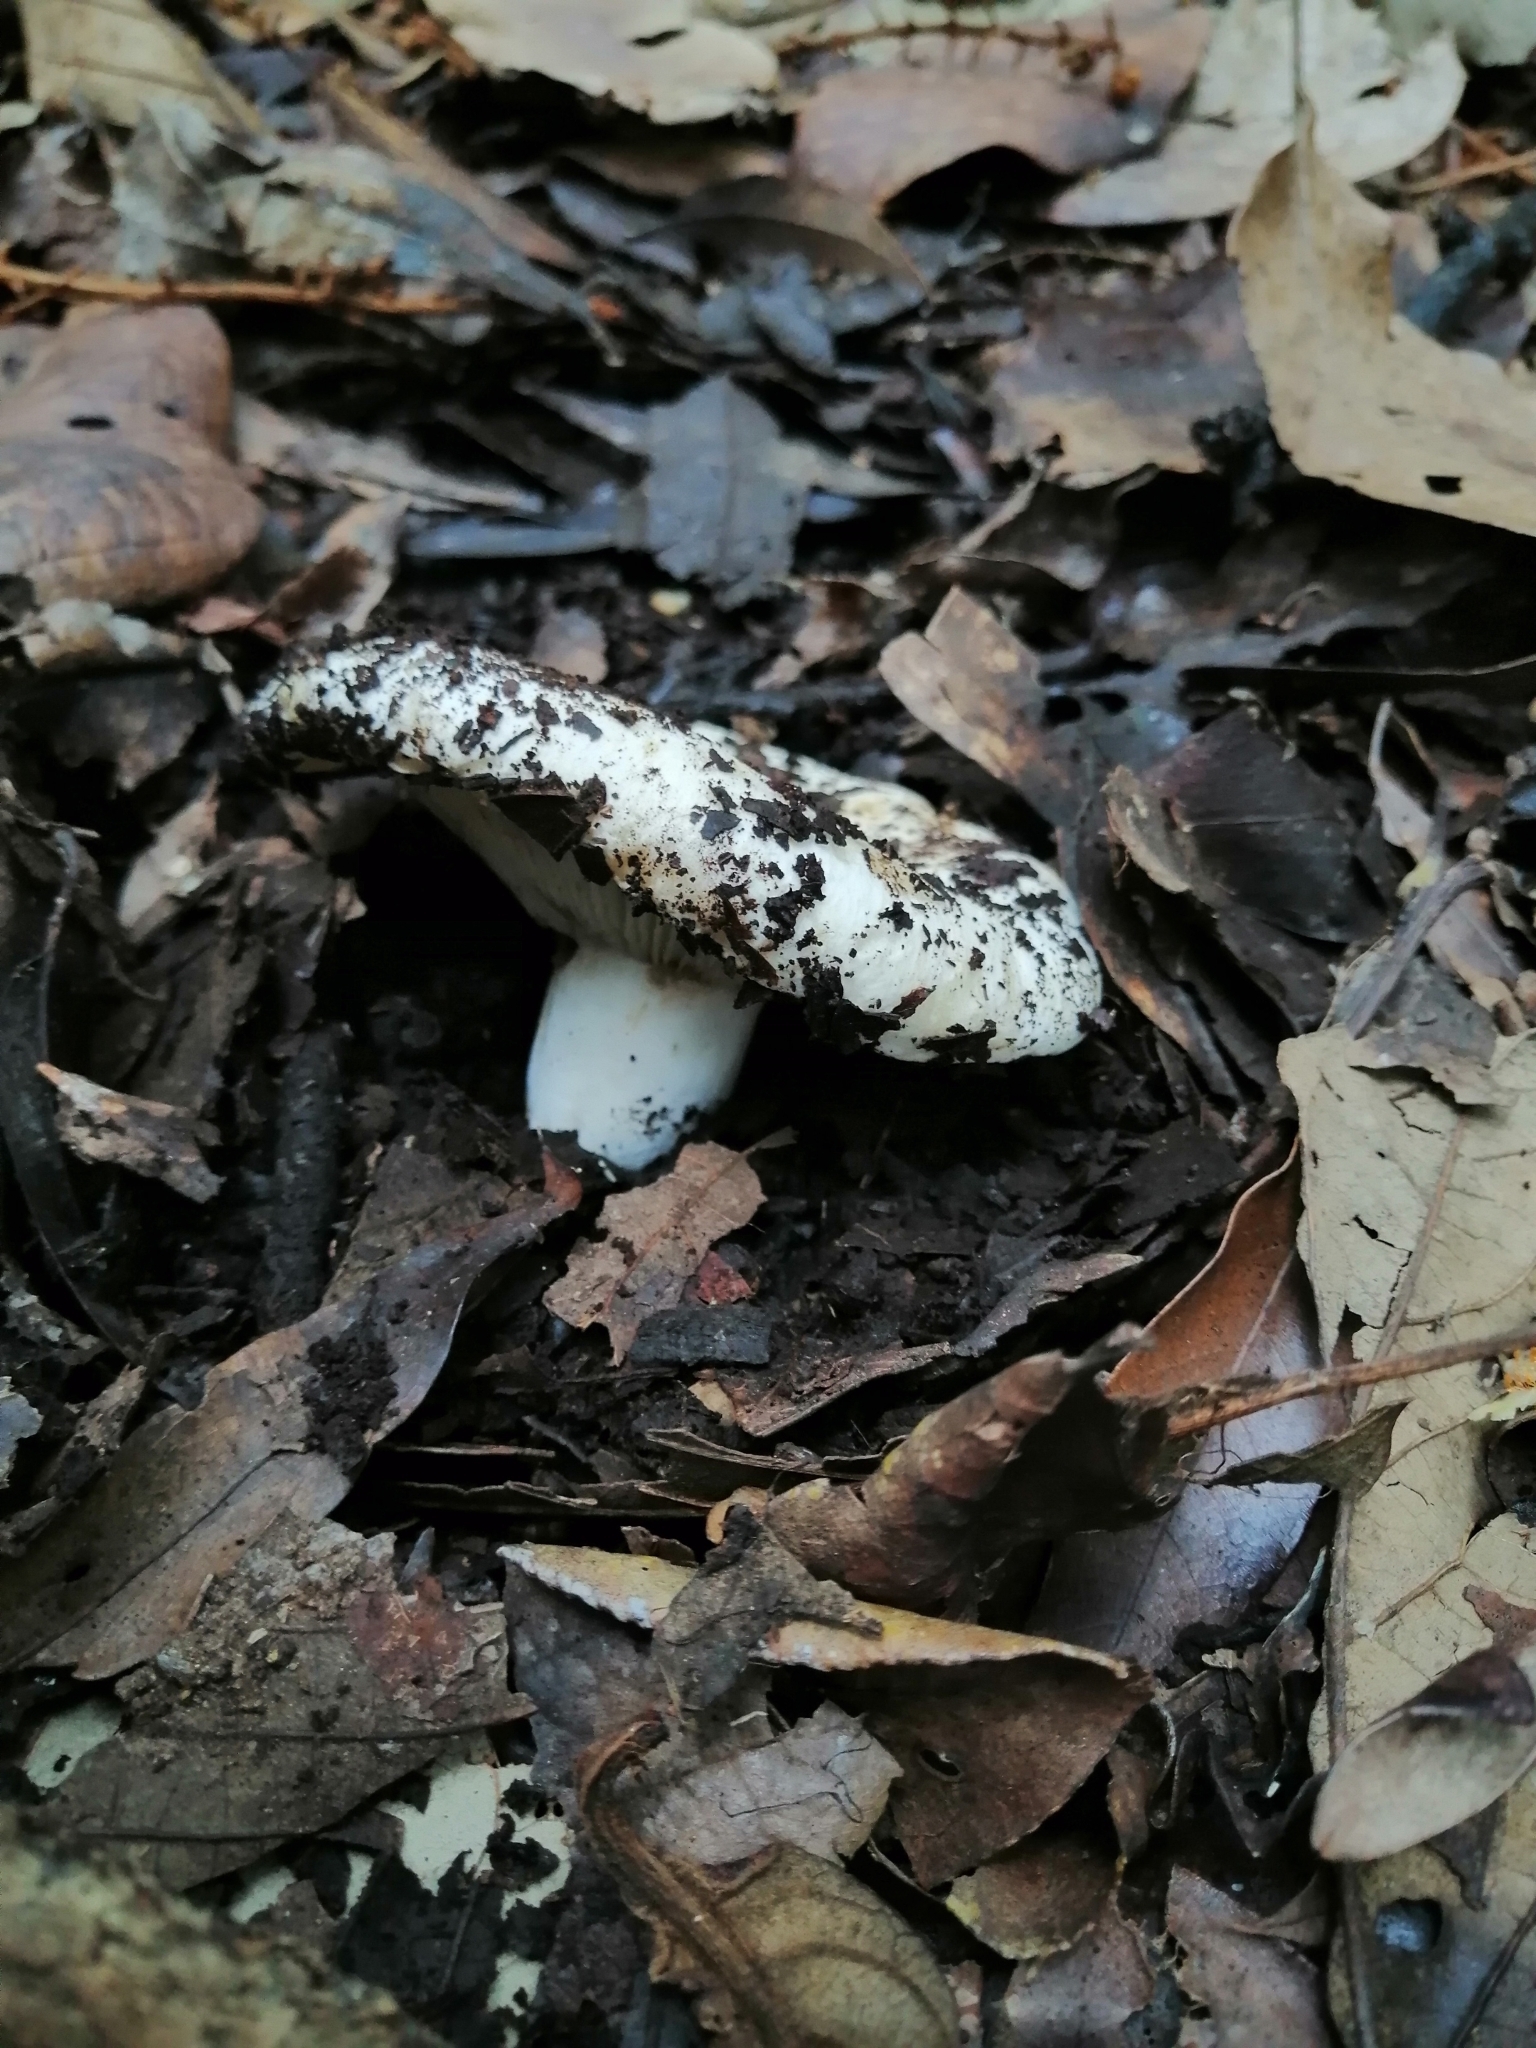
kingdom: Fungi
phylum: Basidiomycota
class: Agaricomycetes
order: Russulales
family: Russulaceae
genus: Russula
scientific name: Russula brevipes
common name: Short-stemmed russula
